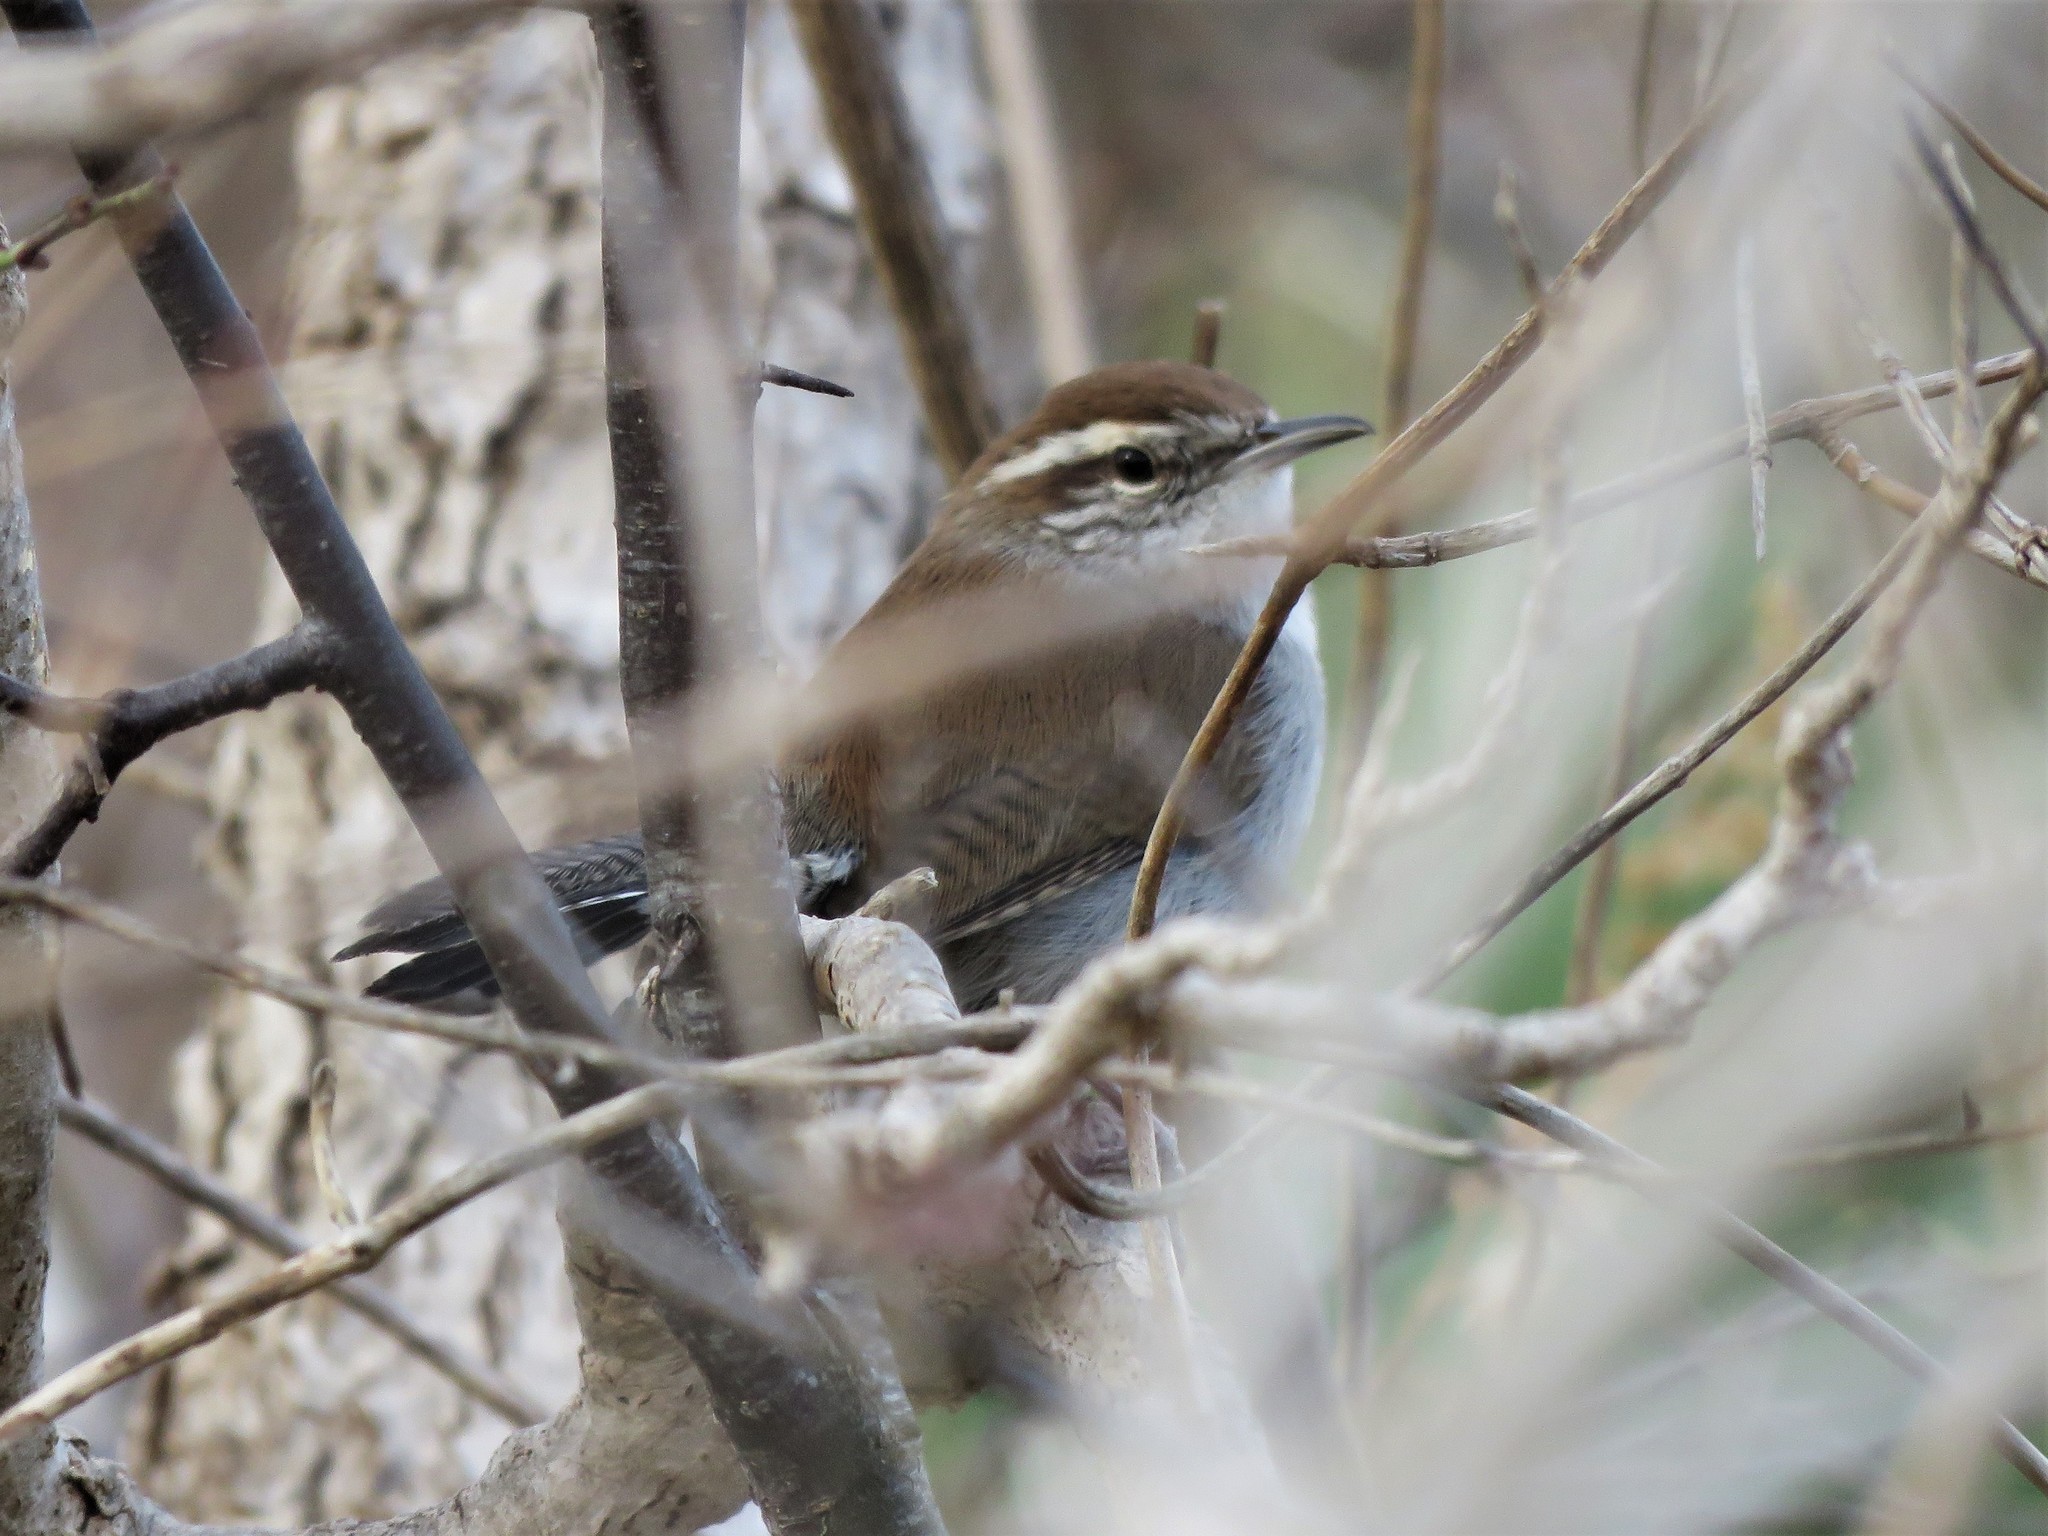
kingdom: Animalia
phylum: Chordata
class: Aves
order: Passeriformes
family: Troglodytidae
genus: Thryomanes
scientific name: Thryomanes bewickii
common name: Bewick's wren
